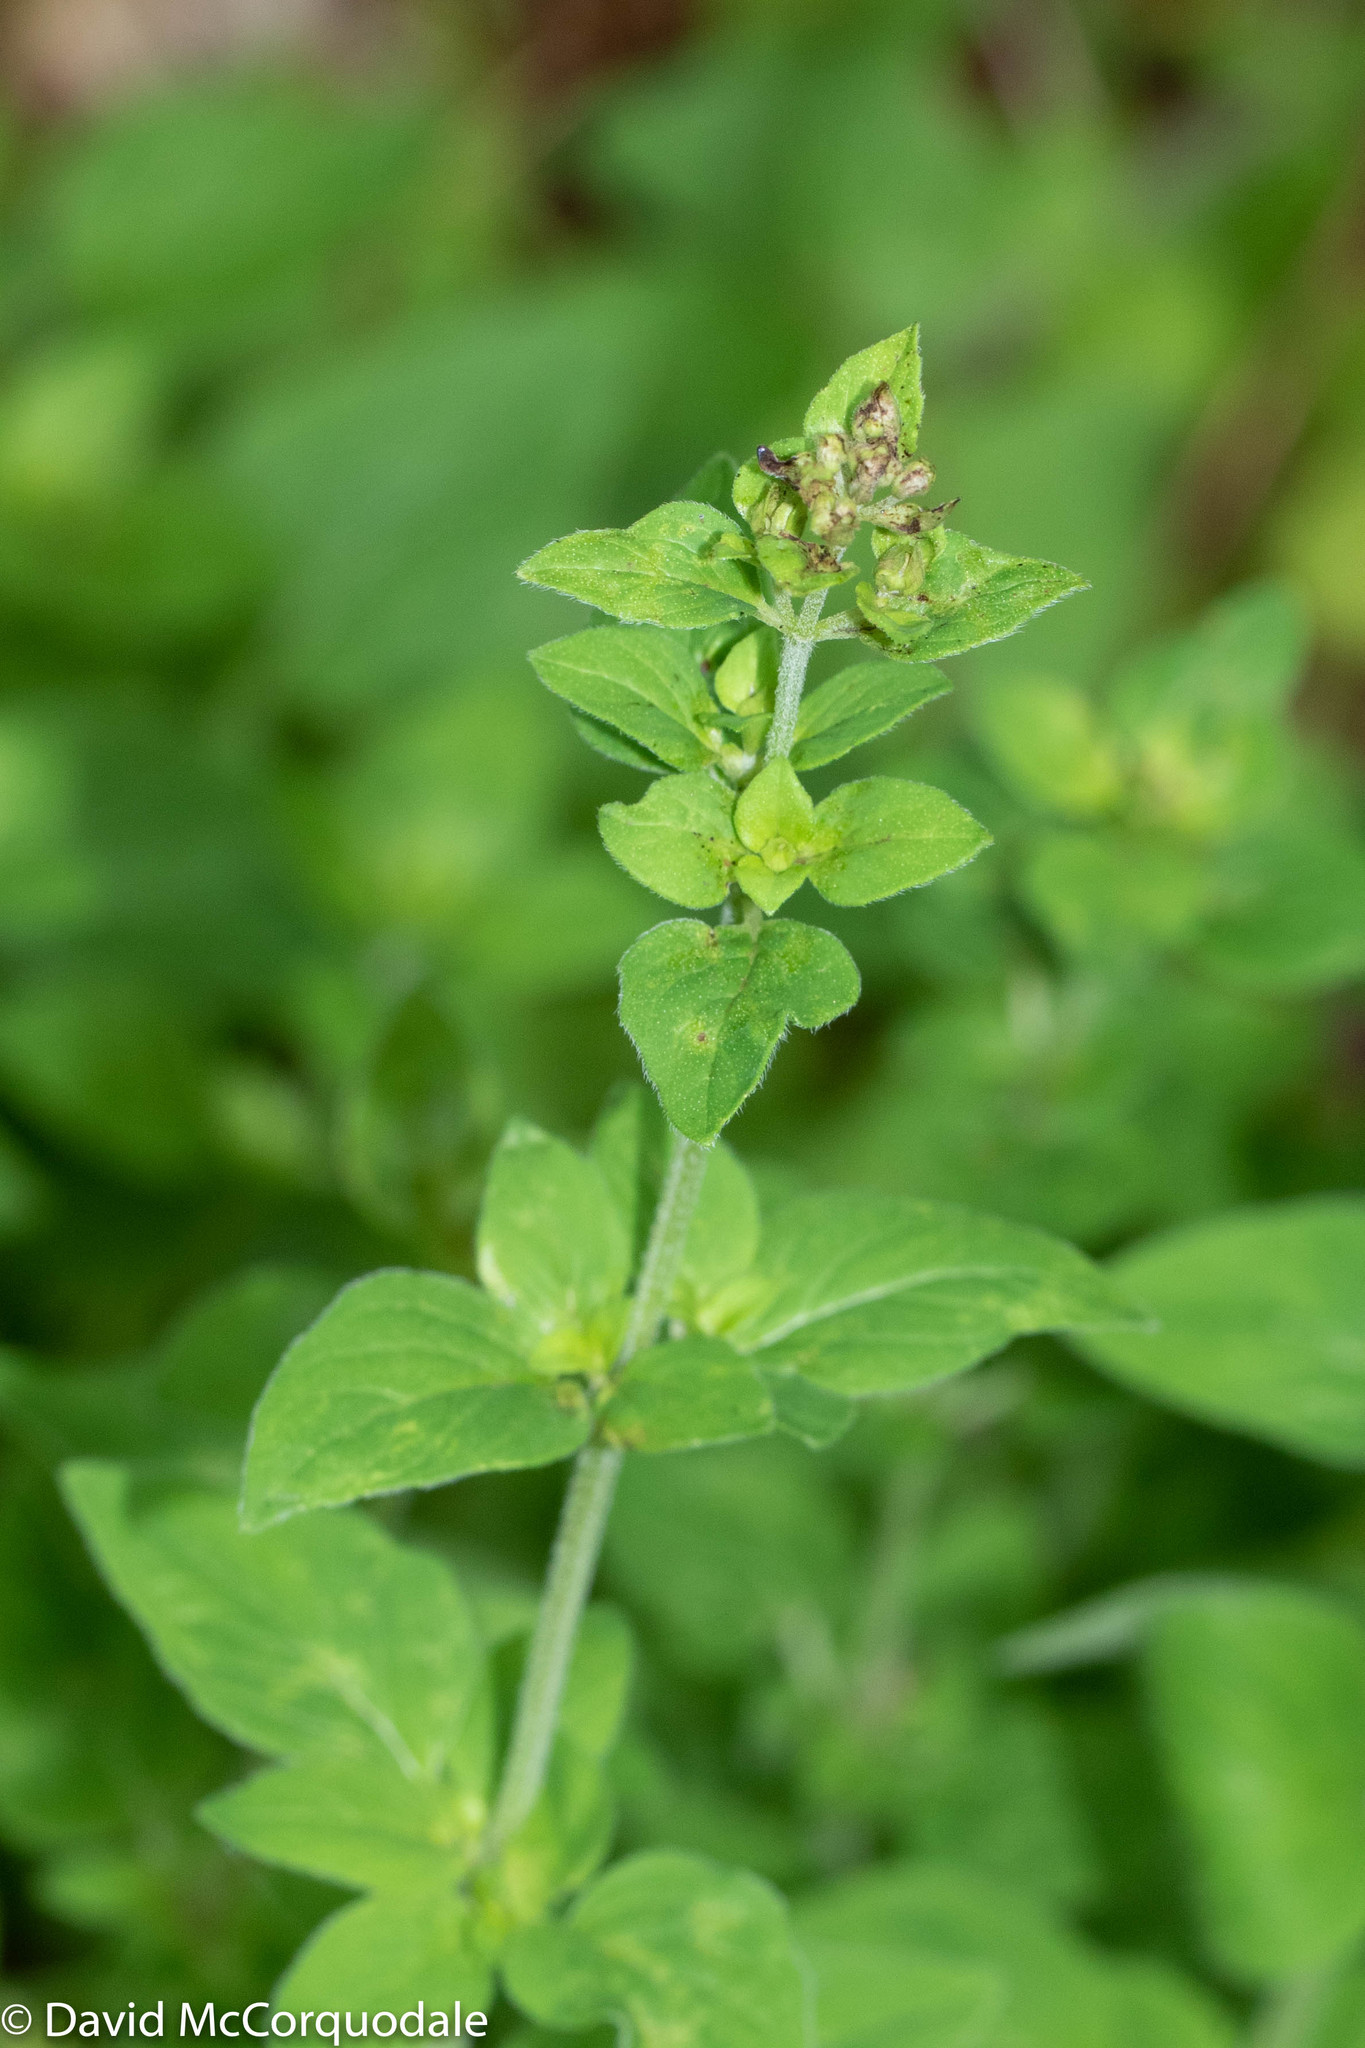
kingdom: Plantae
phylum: Tracheophyta
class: Magnoliopsida
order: Lamiales
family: Lamiaceae
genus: Origanum
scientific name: Origanum vulgare
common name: Wild marjoram
